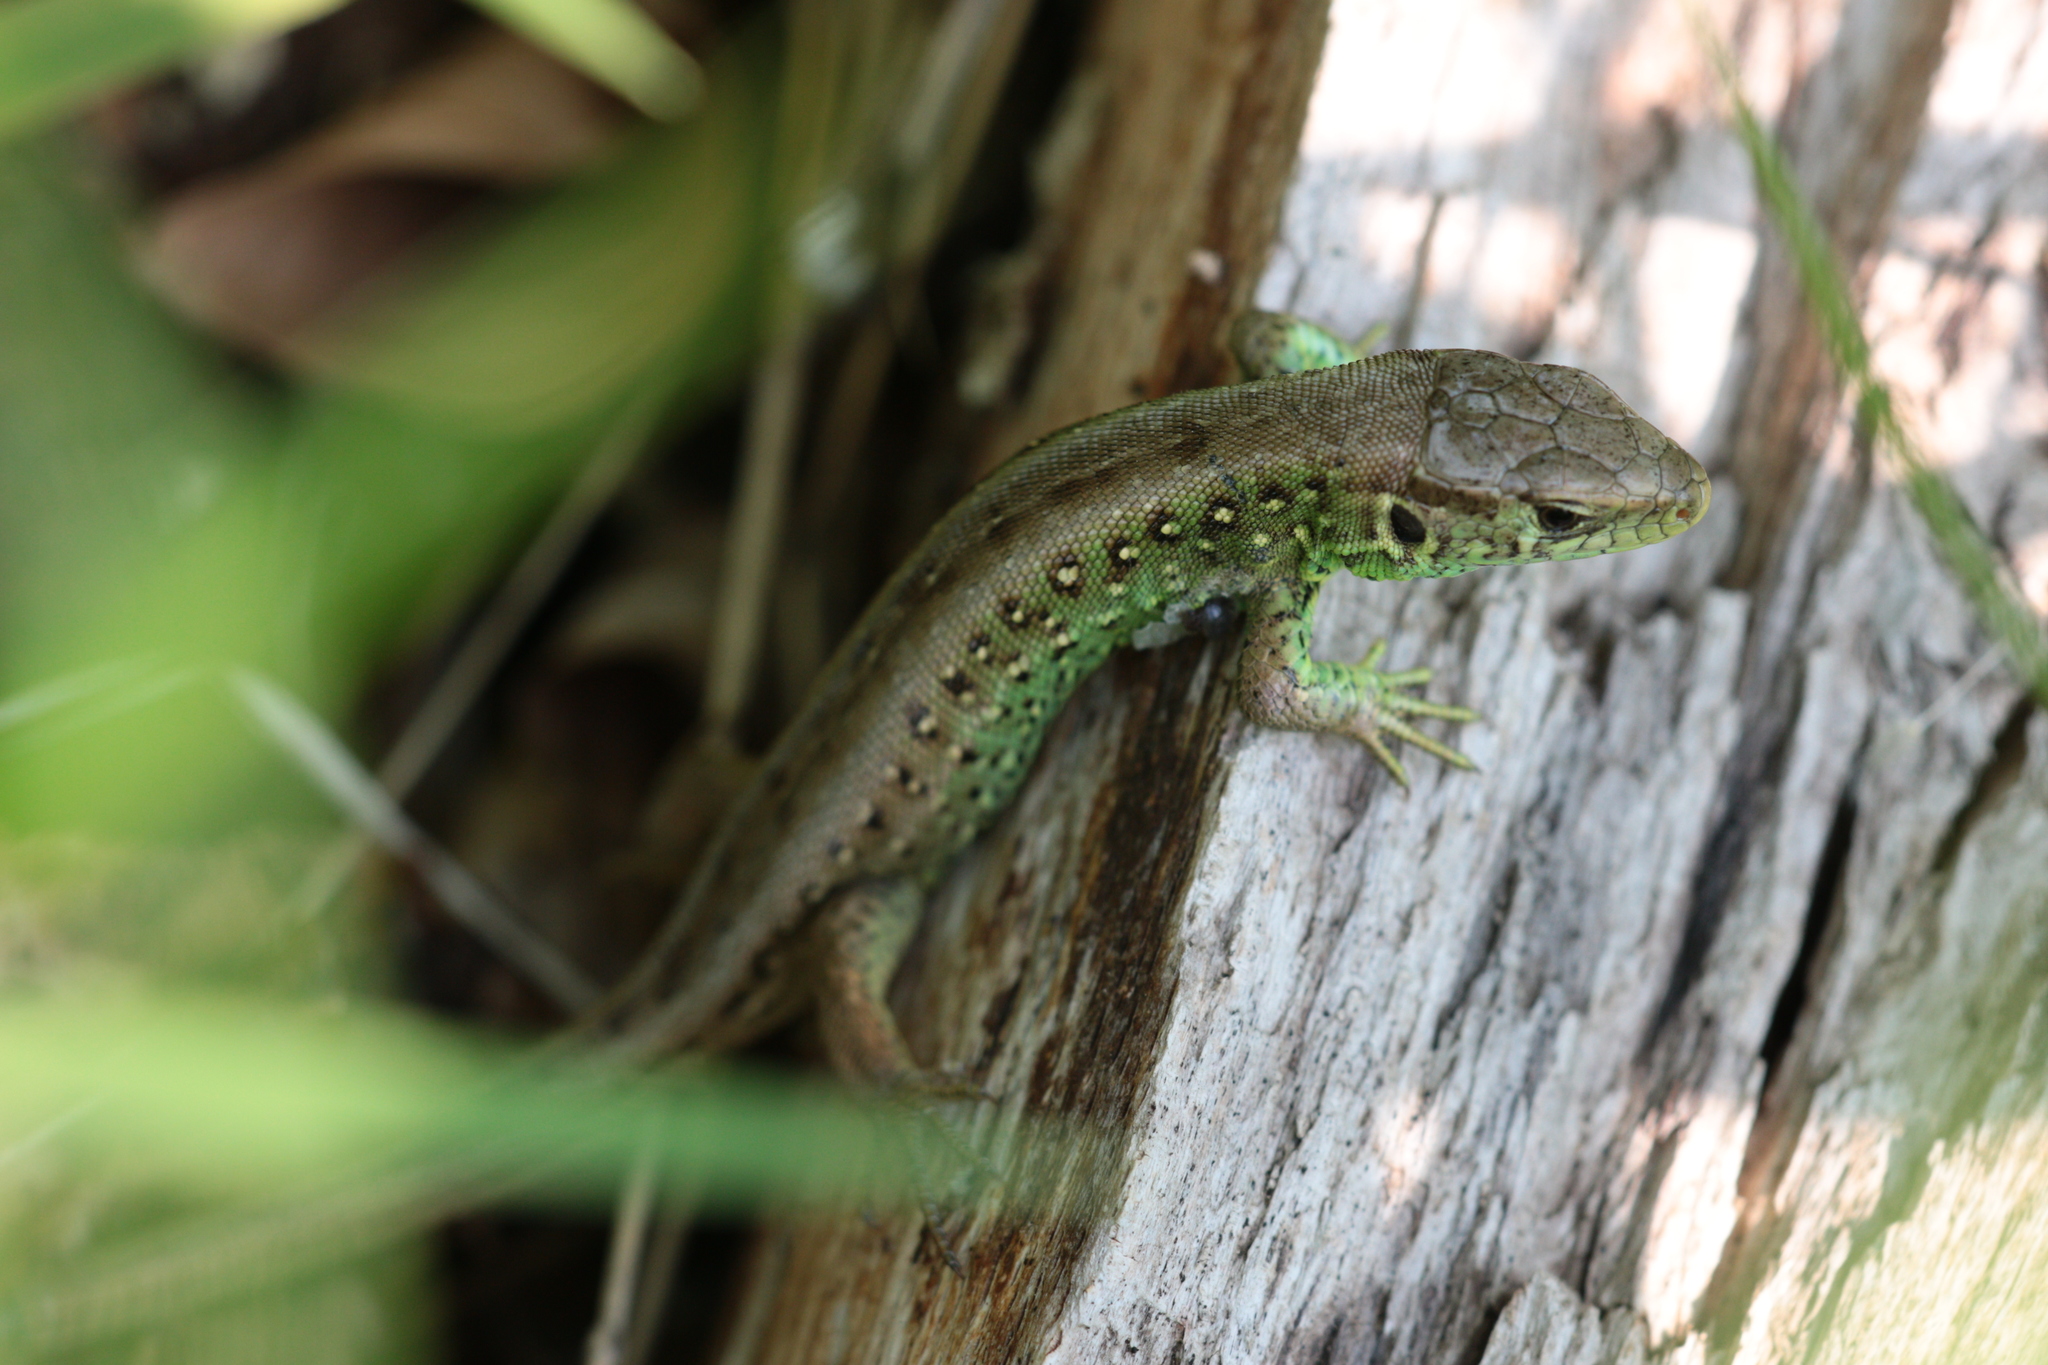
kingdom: Animalia
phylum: Chordata
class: Squamata
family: Lacertidae
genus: Lacerta
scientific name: Lacerta agilis
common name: Sand lizard
